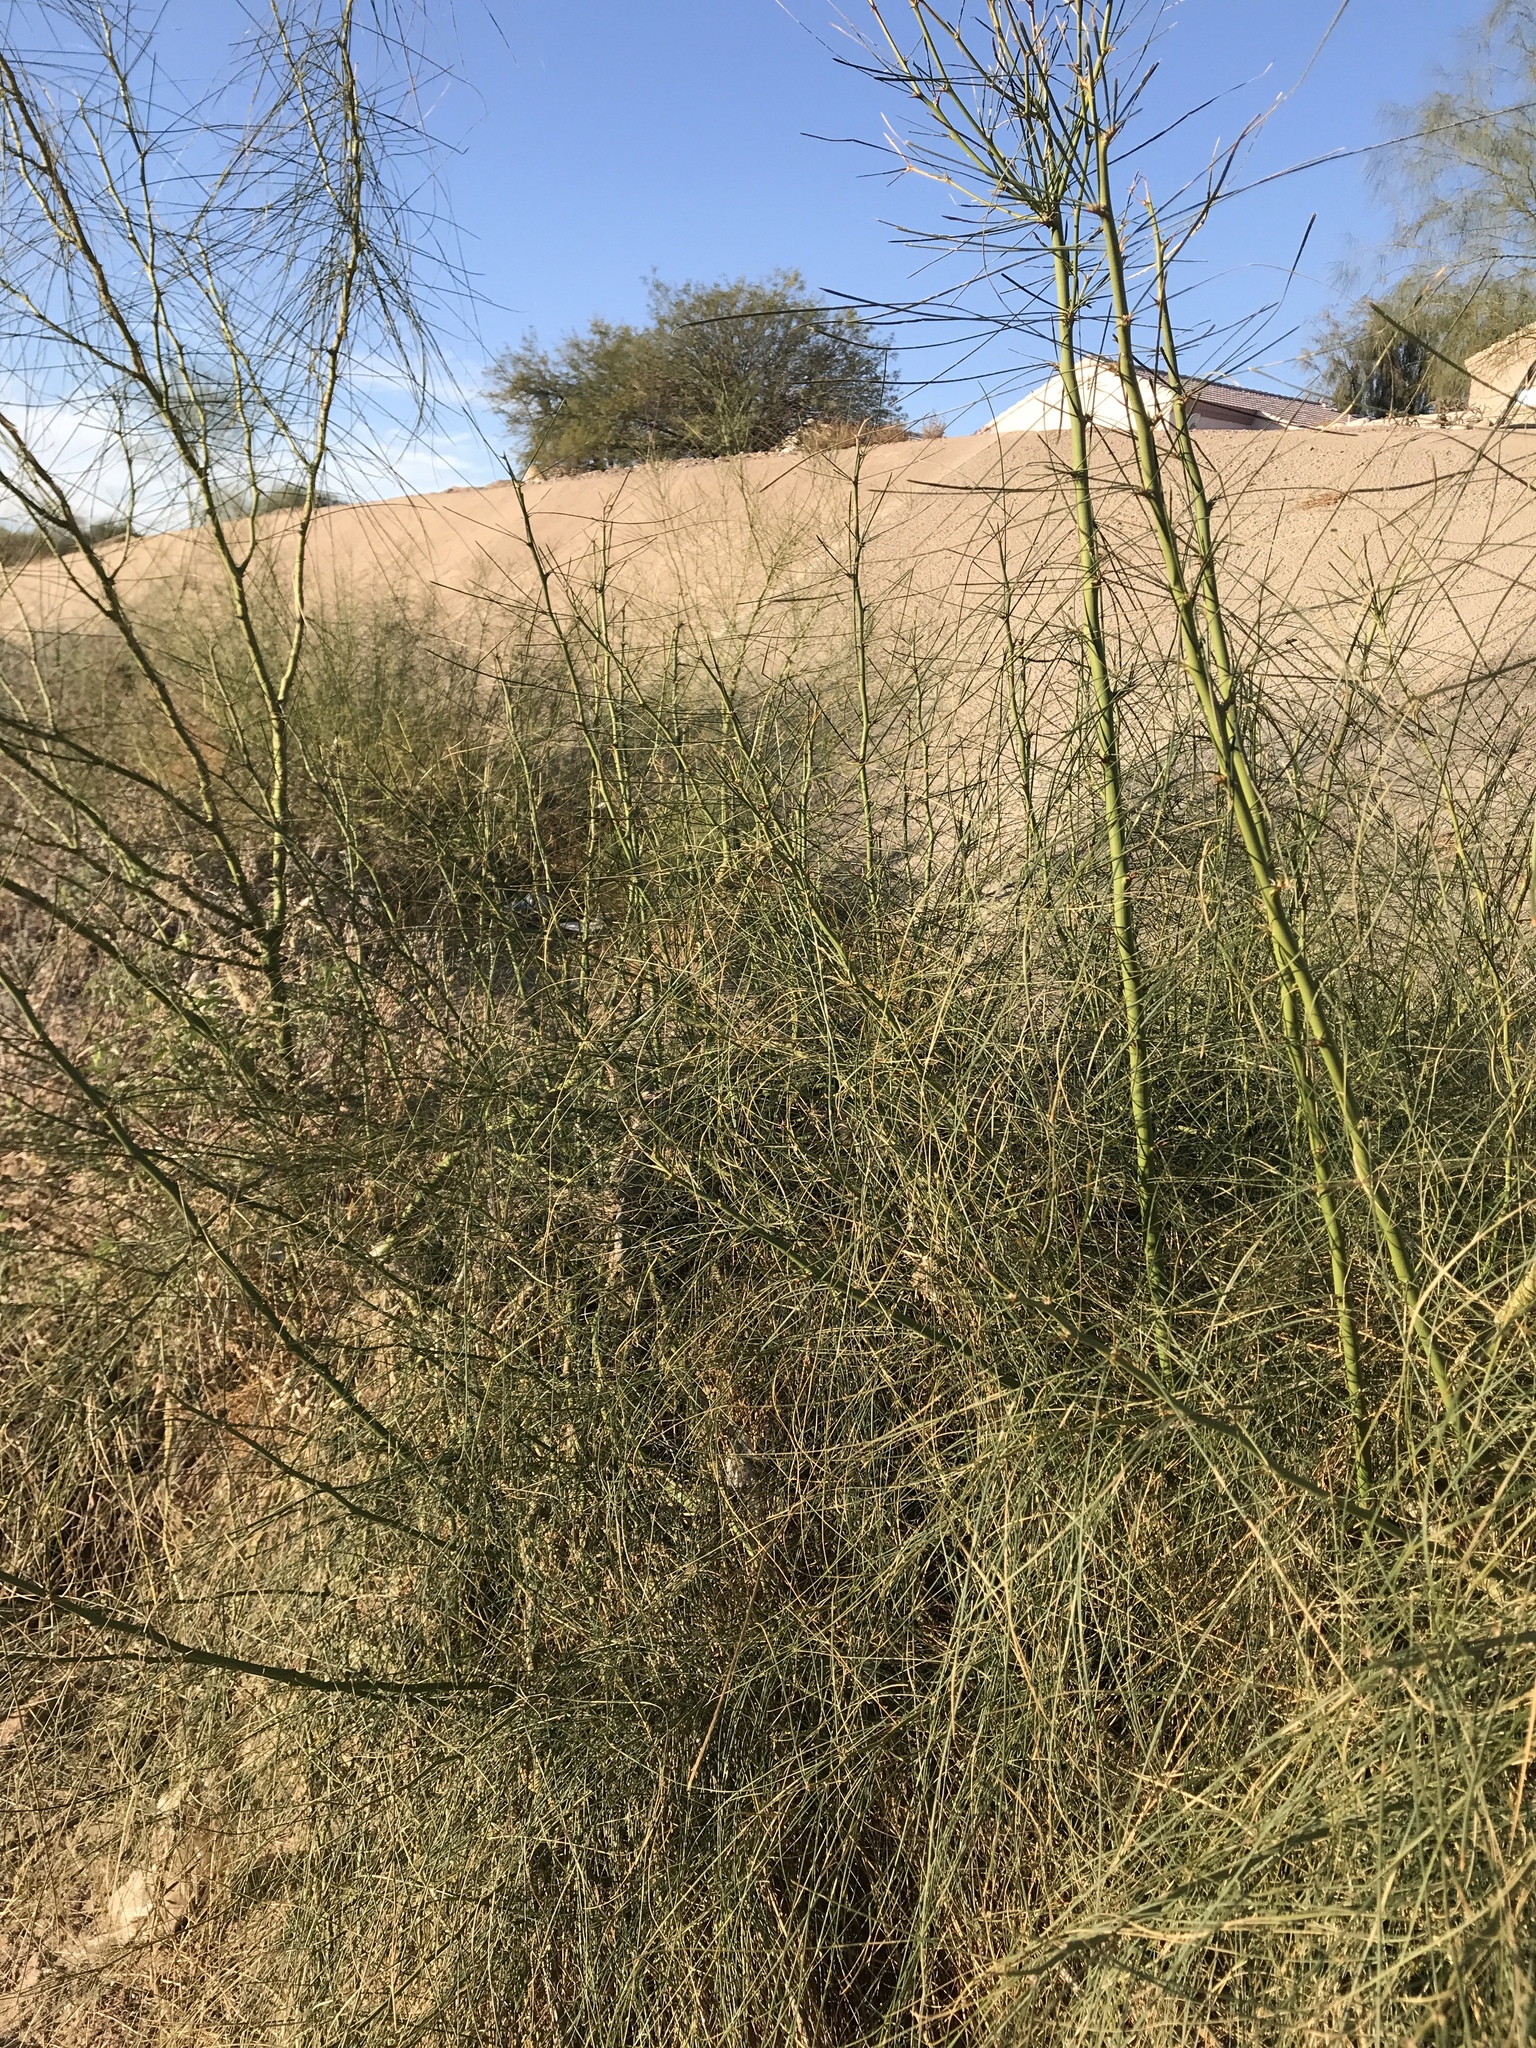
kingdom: Plantae
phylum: Tracheophyta
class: Magnoliopsida
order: Fabales
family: Fabaceae
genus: Parkinsonia
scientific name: Parkinsonia aculeata
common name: Jerusalem thorn
